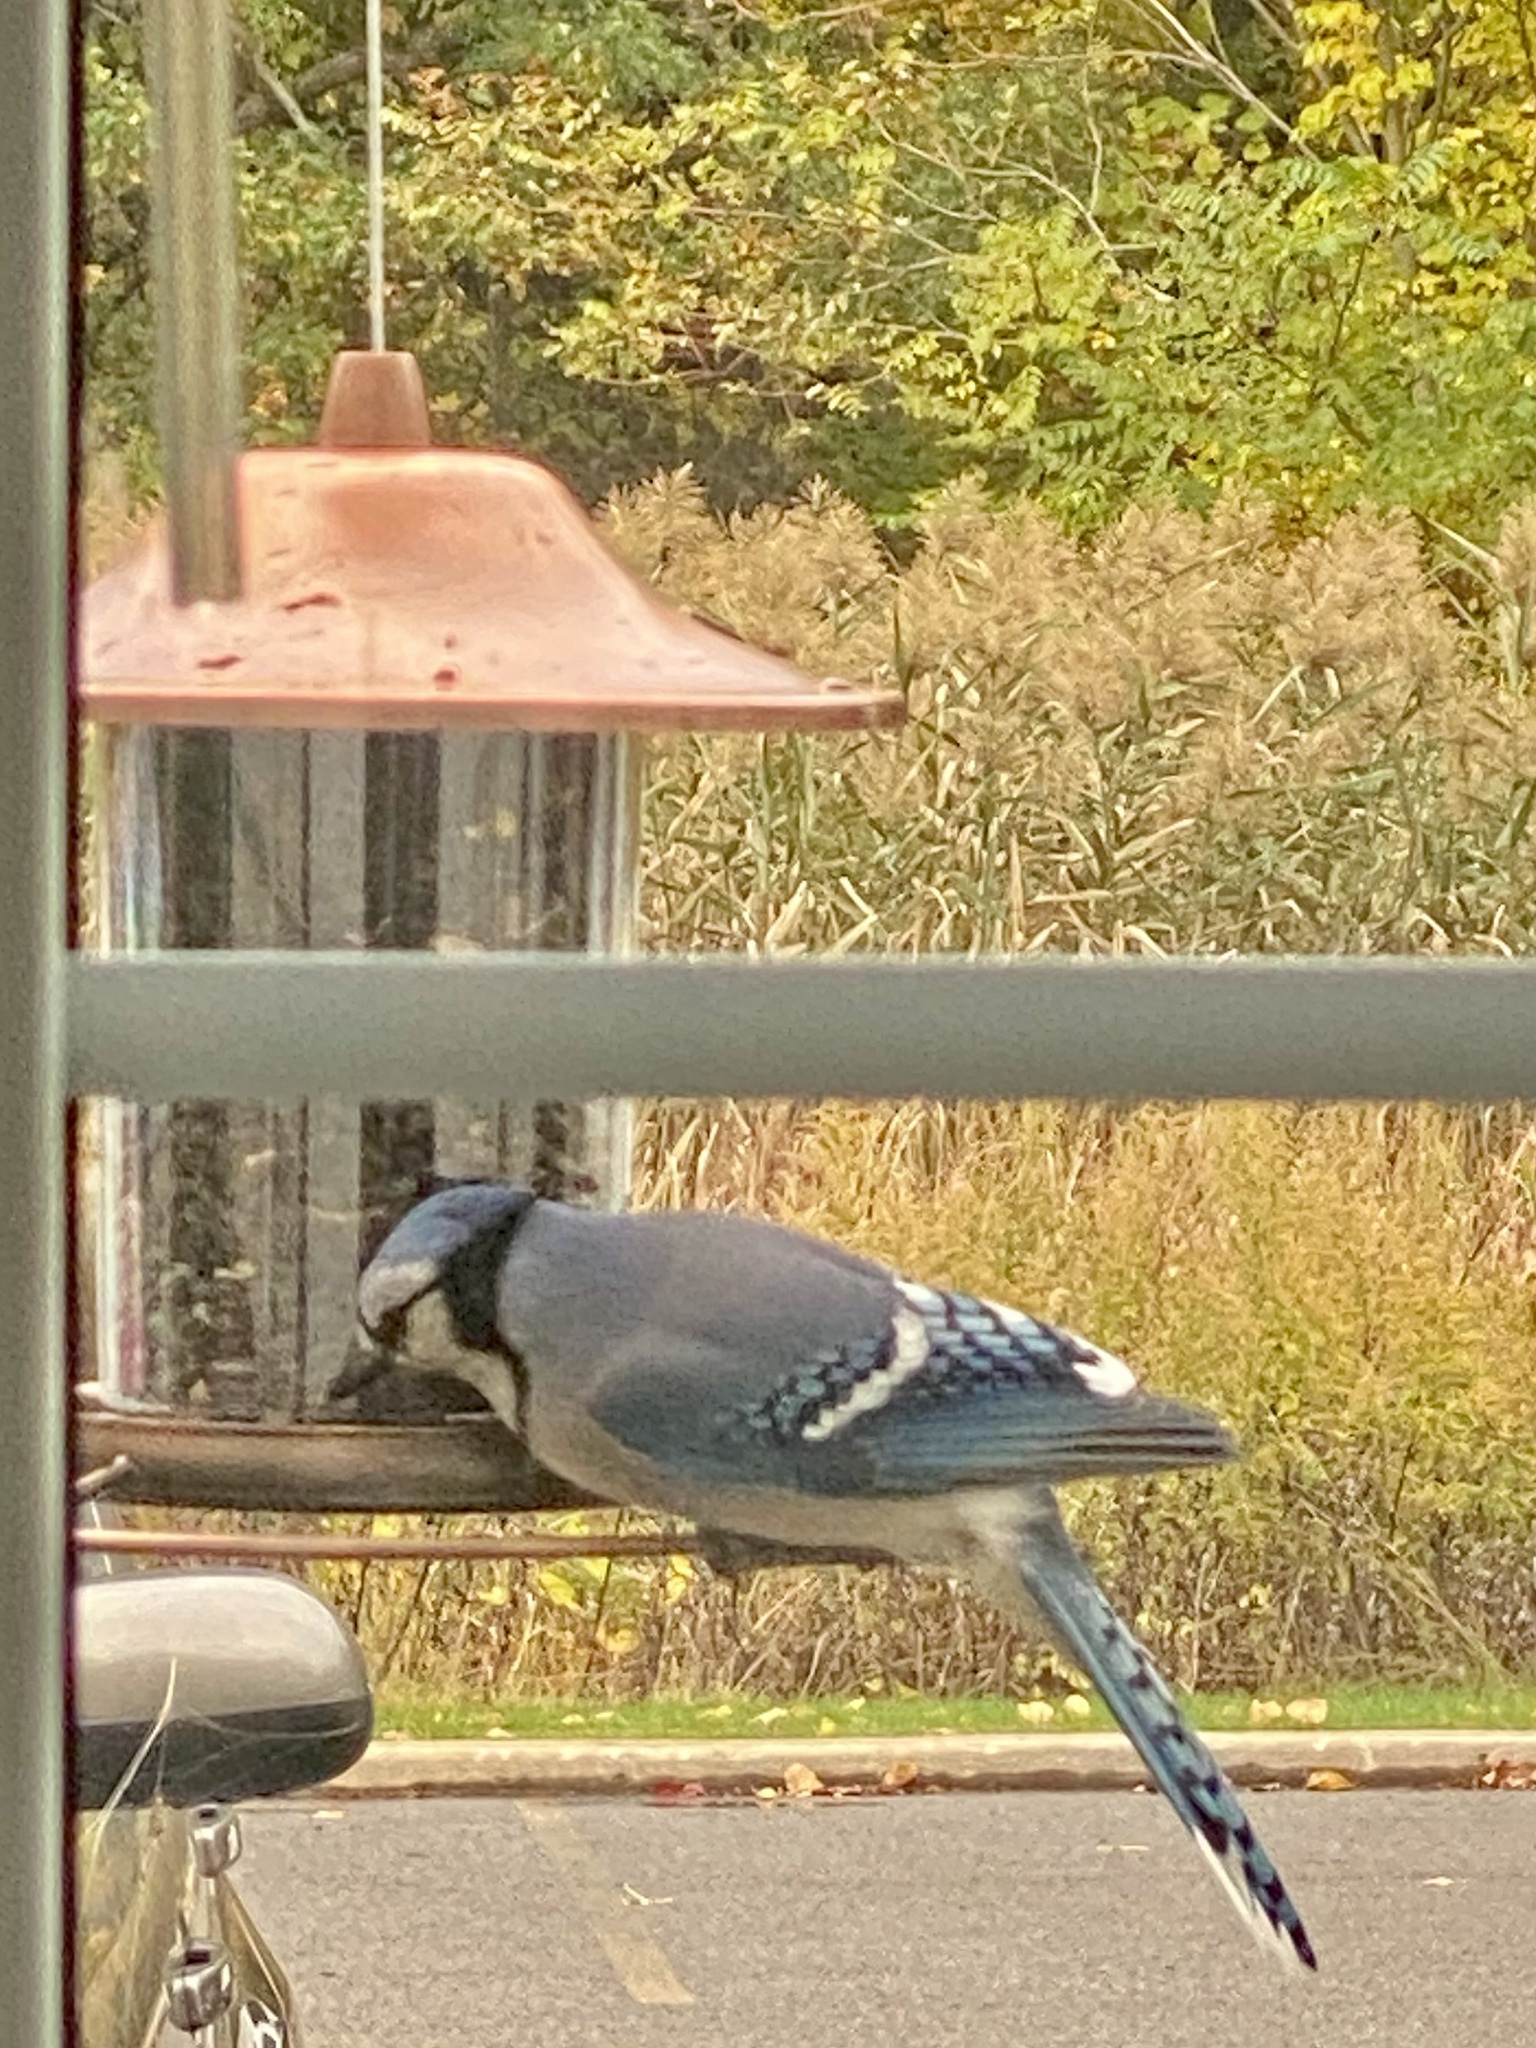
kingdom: Animalia
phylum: Chordata
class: Aves
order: Passeriformes
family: Corvidae
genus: Cyanocitta
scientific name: Cyanocitta cristata
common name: Blue jay
